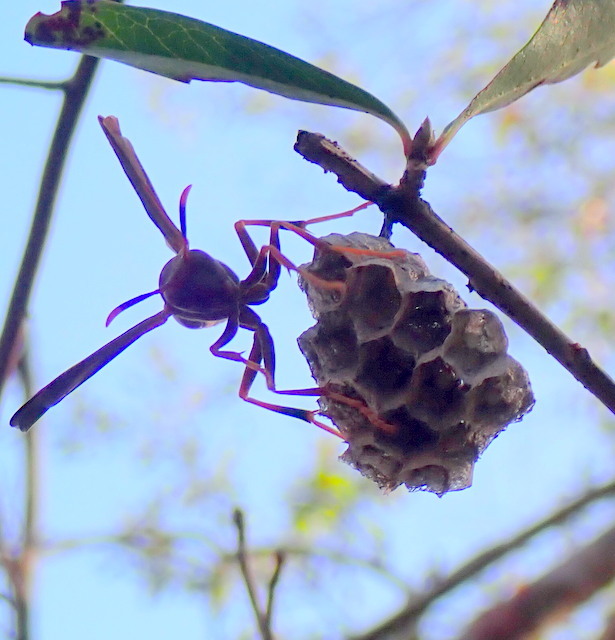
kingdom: Animalia
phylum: Arthropoda
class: Insecta
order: Hymenoptera
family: Eumenidae
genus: Polistes
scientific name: Polistes annularis
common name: Ringed paper wasp
